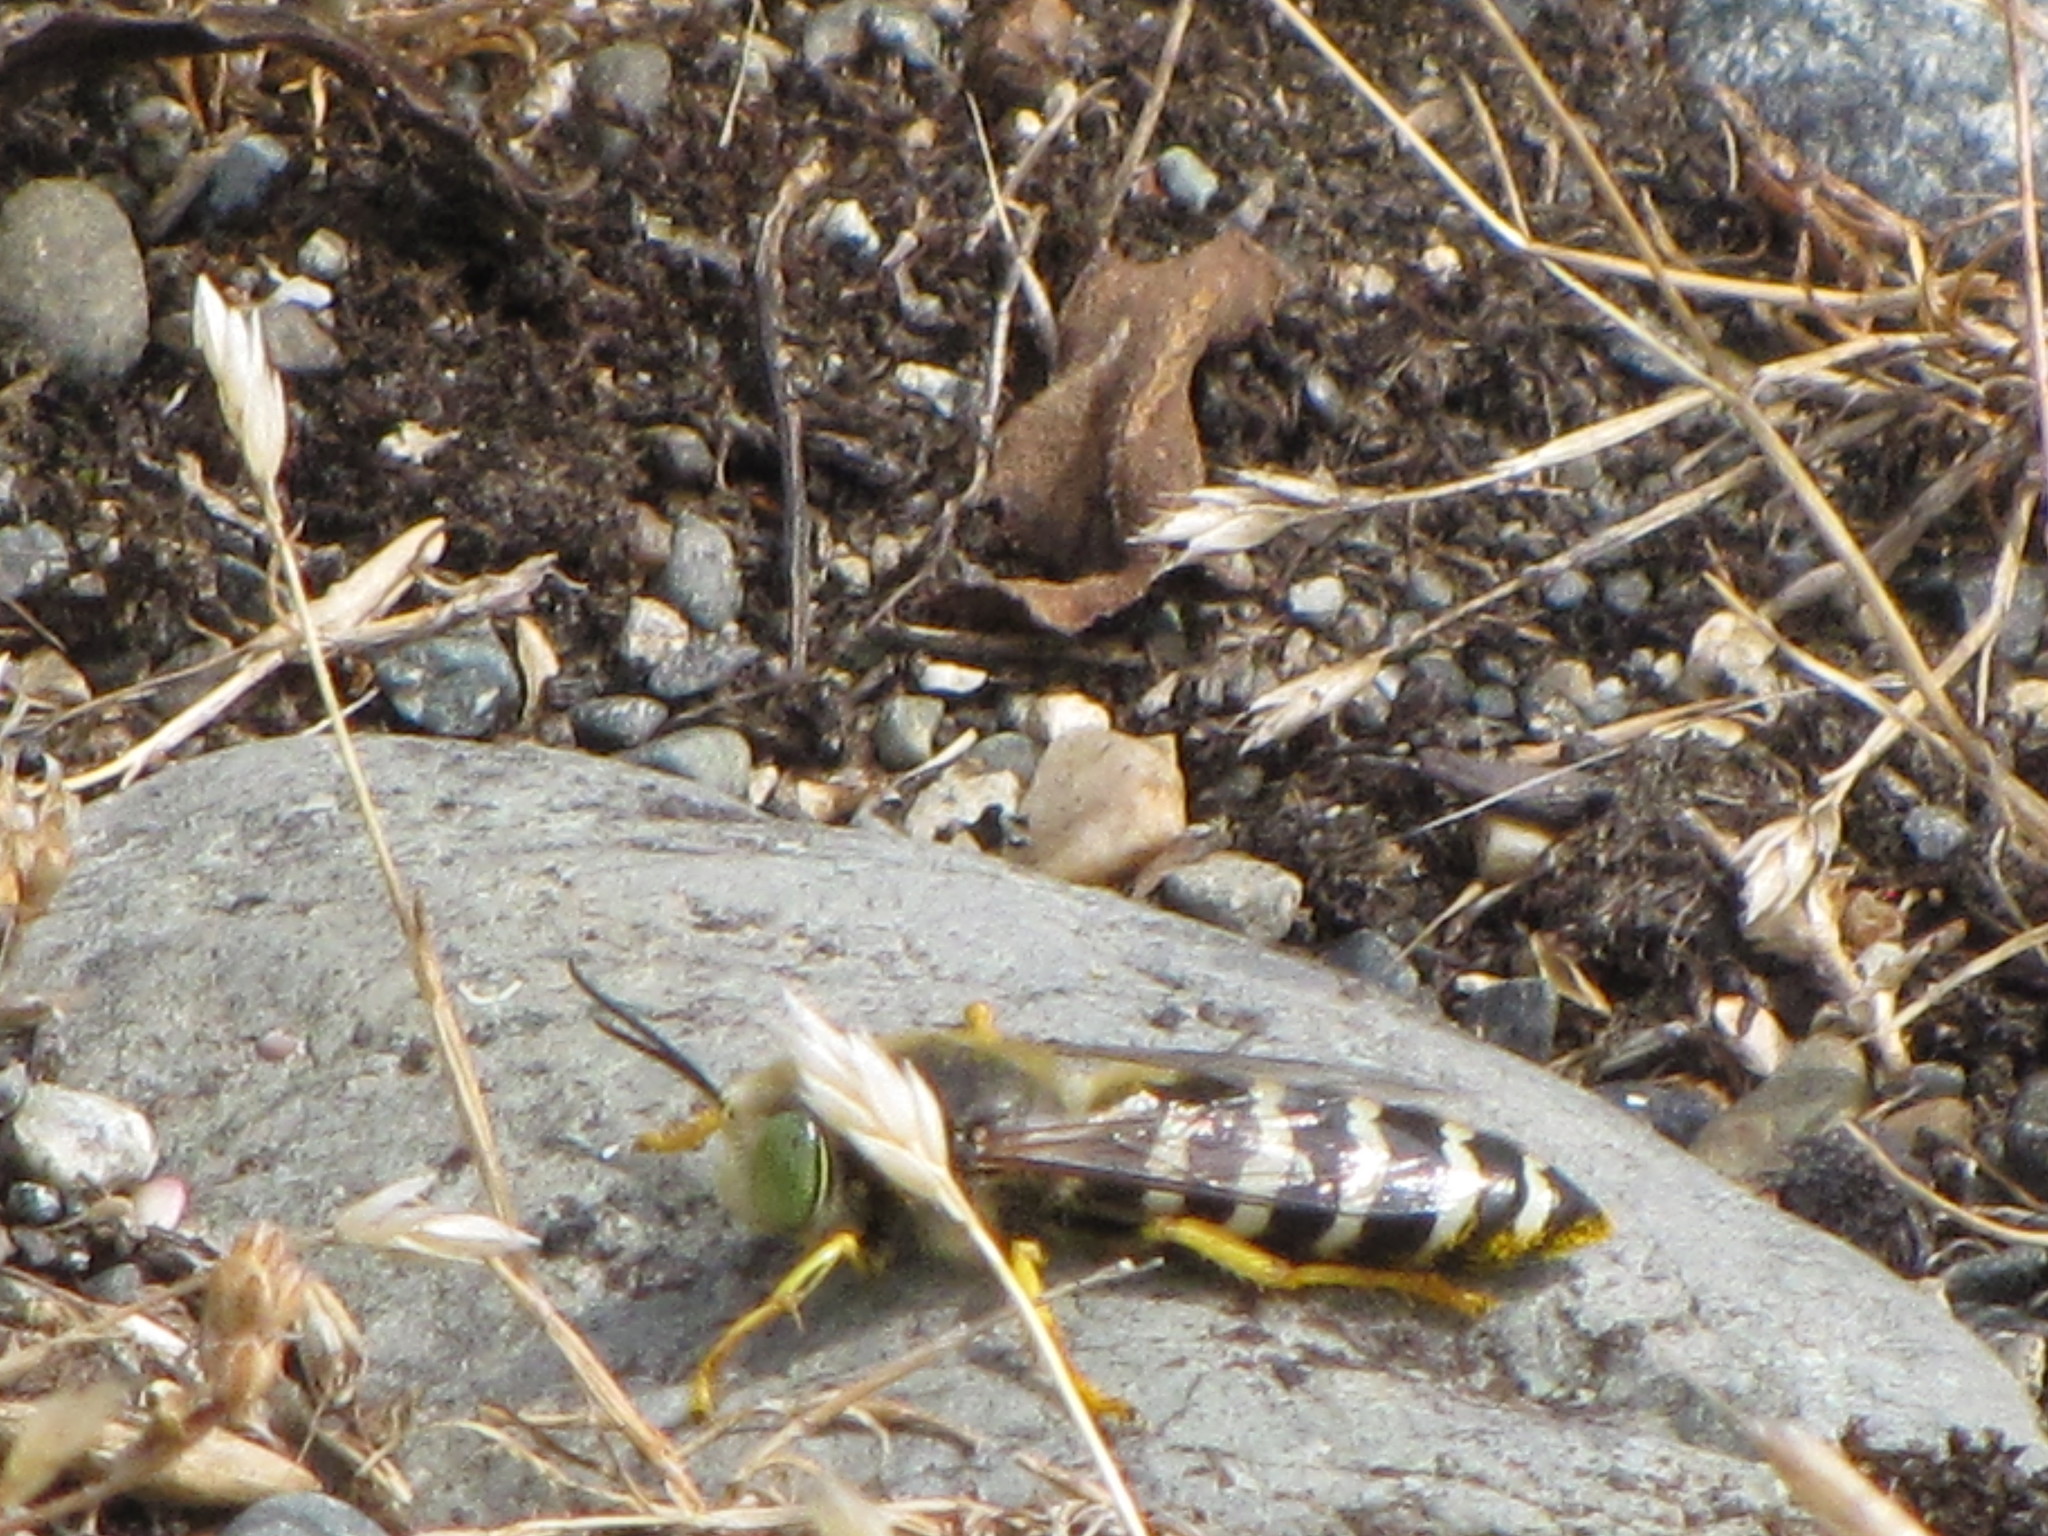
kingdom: Animalia
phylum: Arthropoda
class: Insecta
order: Hymenoptera
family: Crabronidae
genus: Bembix
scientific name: Bembix americana
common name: American sand wasp
